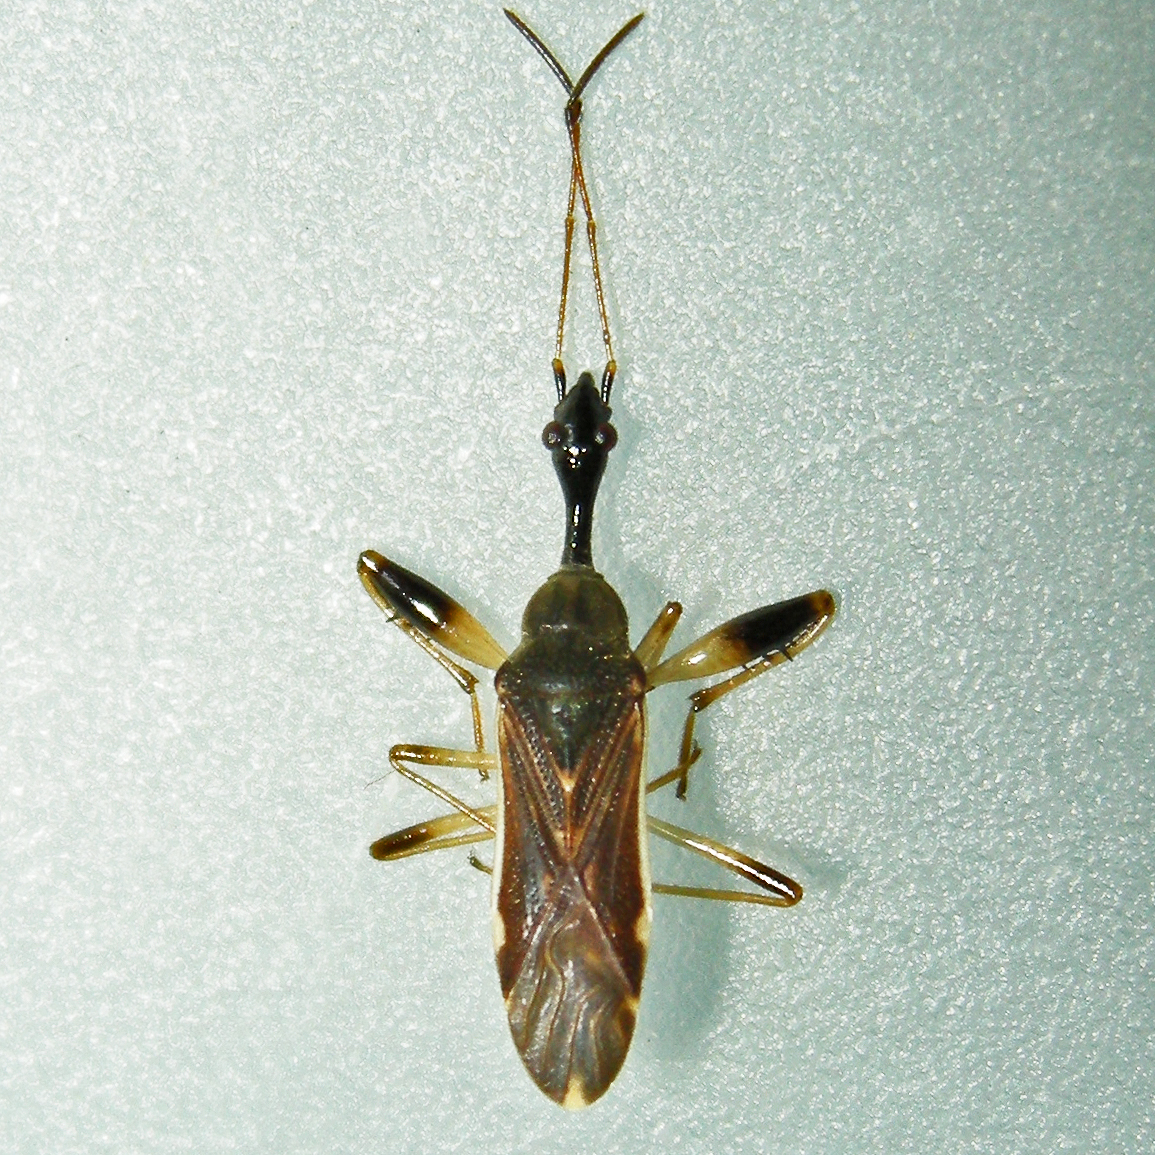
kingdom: Animalia
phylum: Arthropoda
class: Insecta
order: Hemiptera
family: Rhyparochromidae
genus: Myodocha
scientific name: Myodocha serripes
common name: Long-necked seed bug
